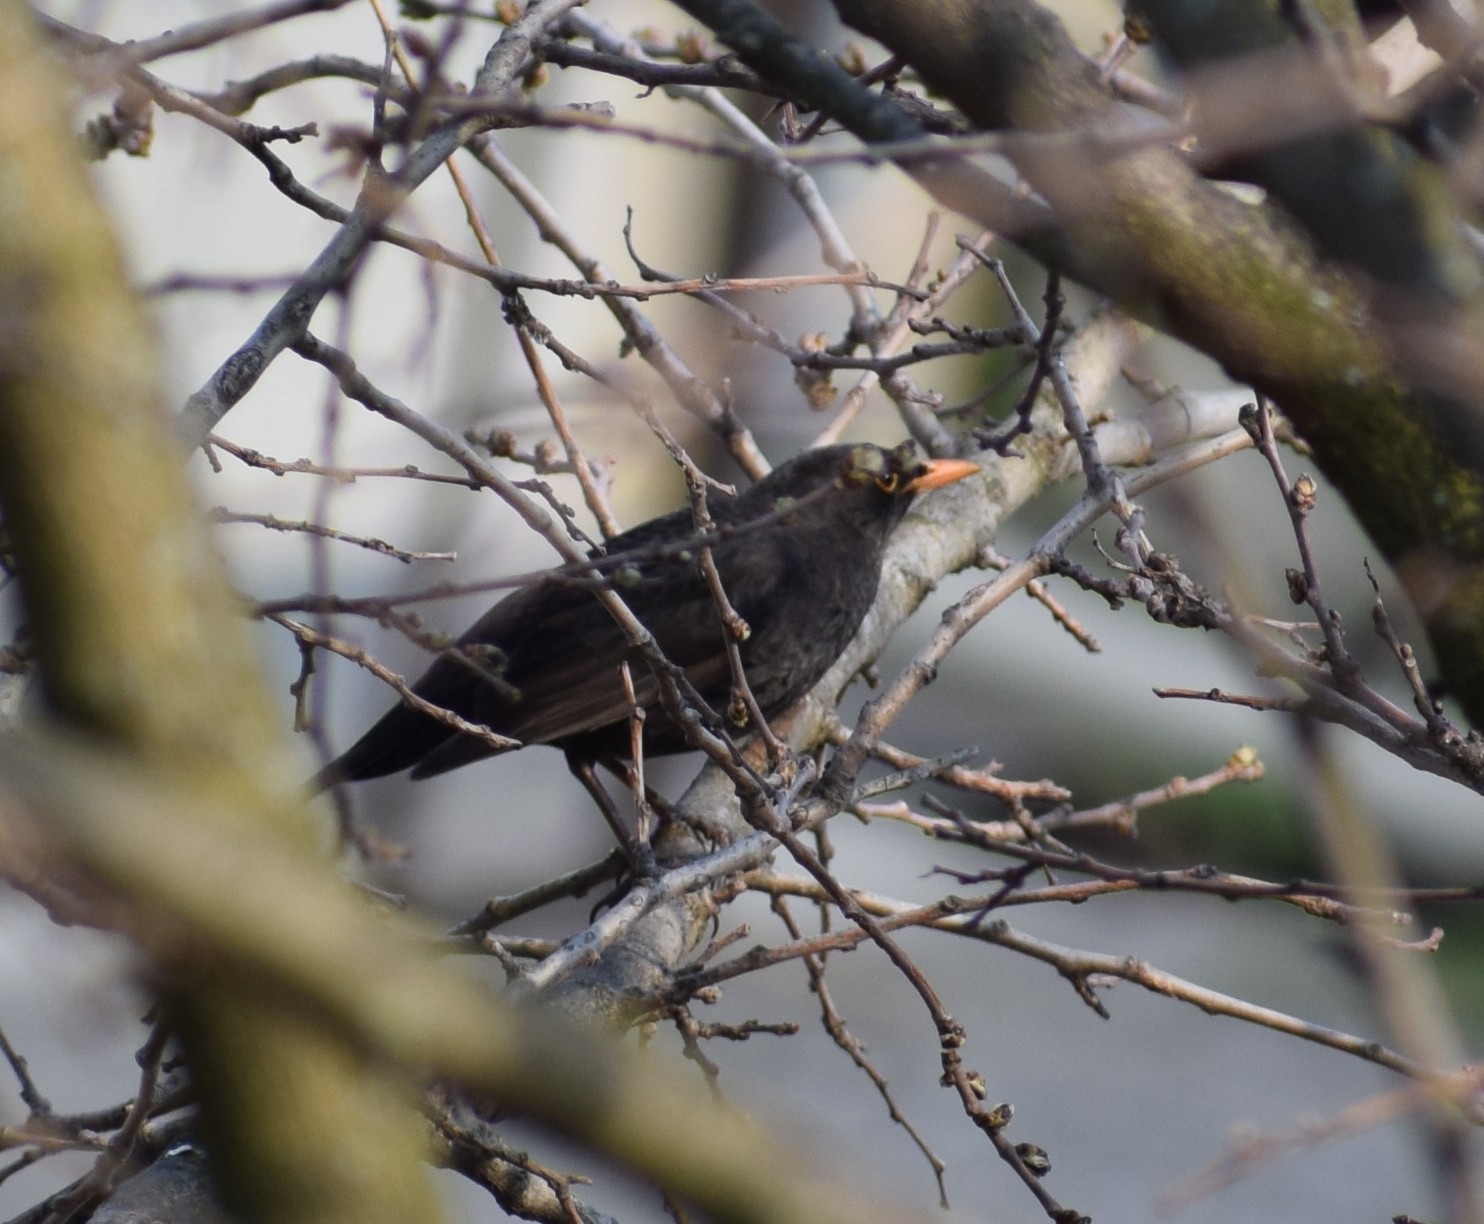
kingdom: Animalia
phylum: Chordata
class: Aves
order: Passeriformes
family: Turdidae
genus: Turdus
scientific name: Turdus merula
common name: Common blackbird
